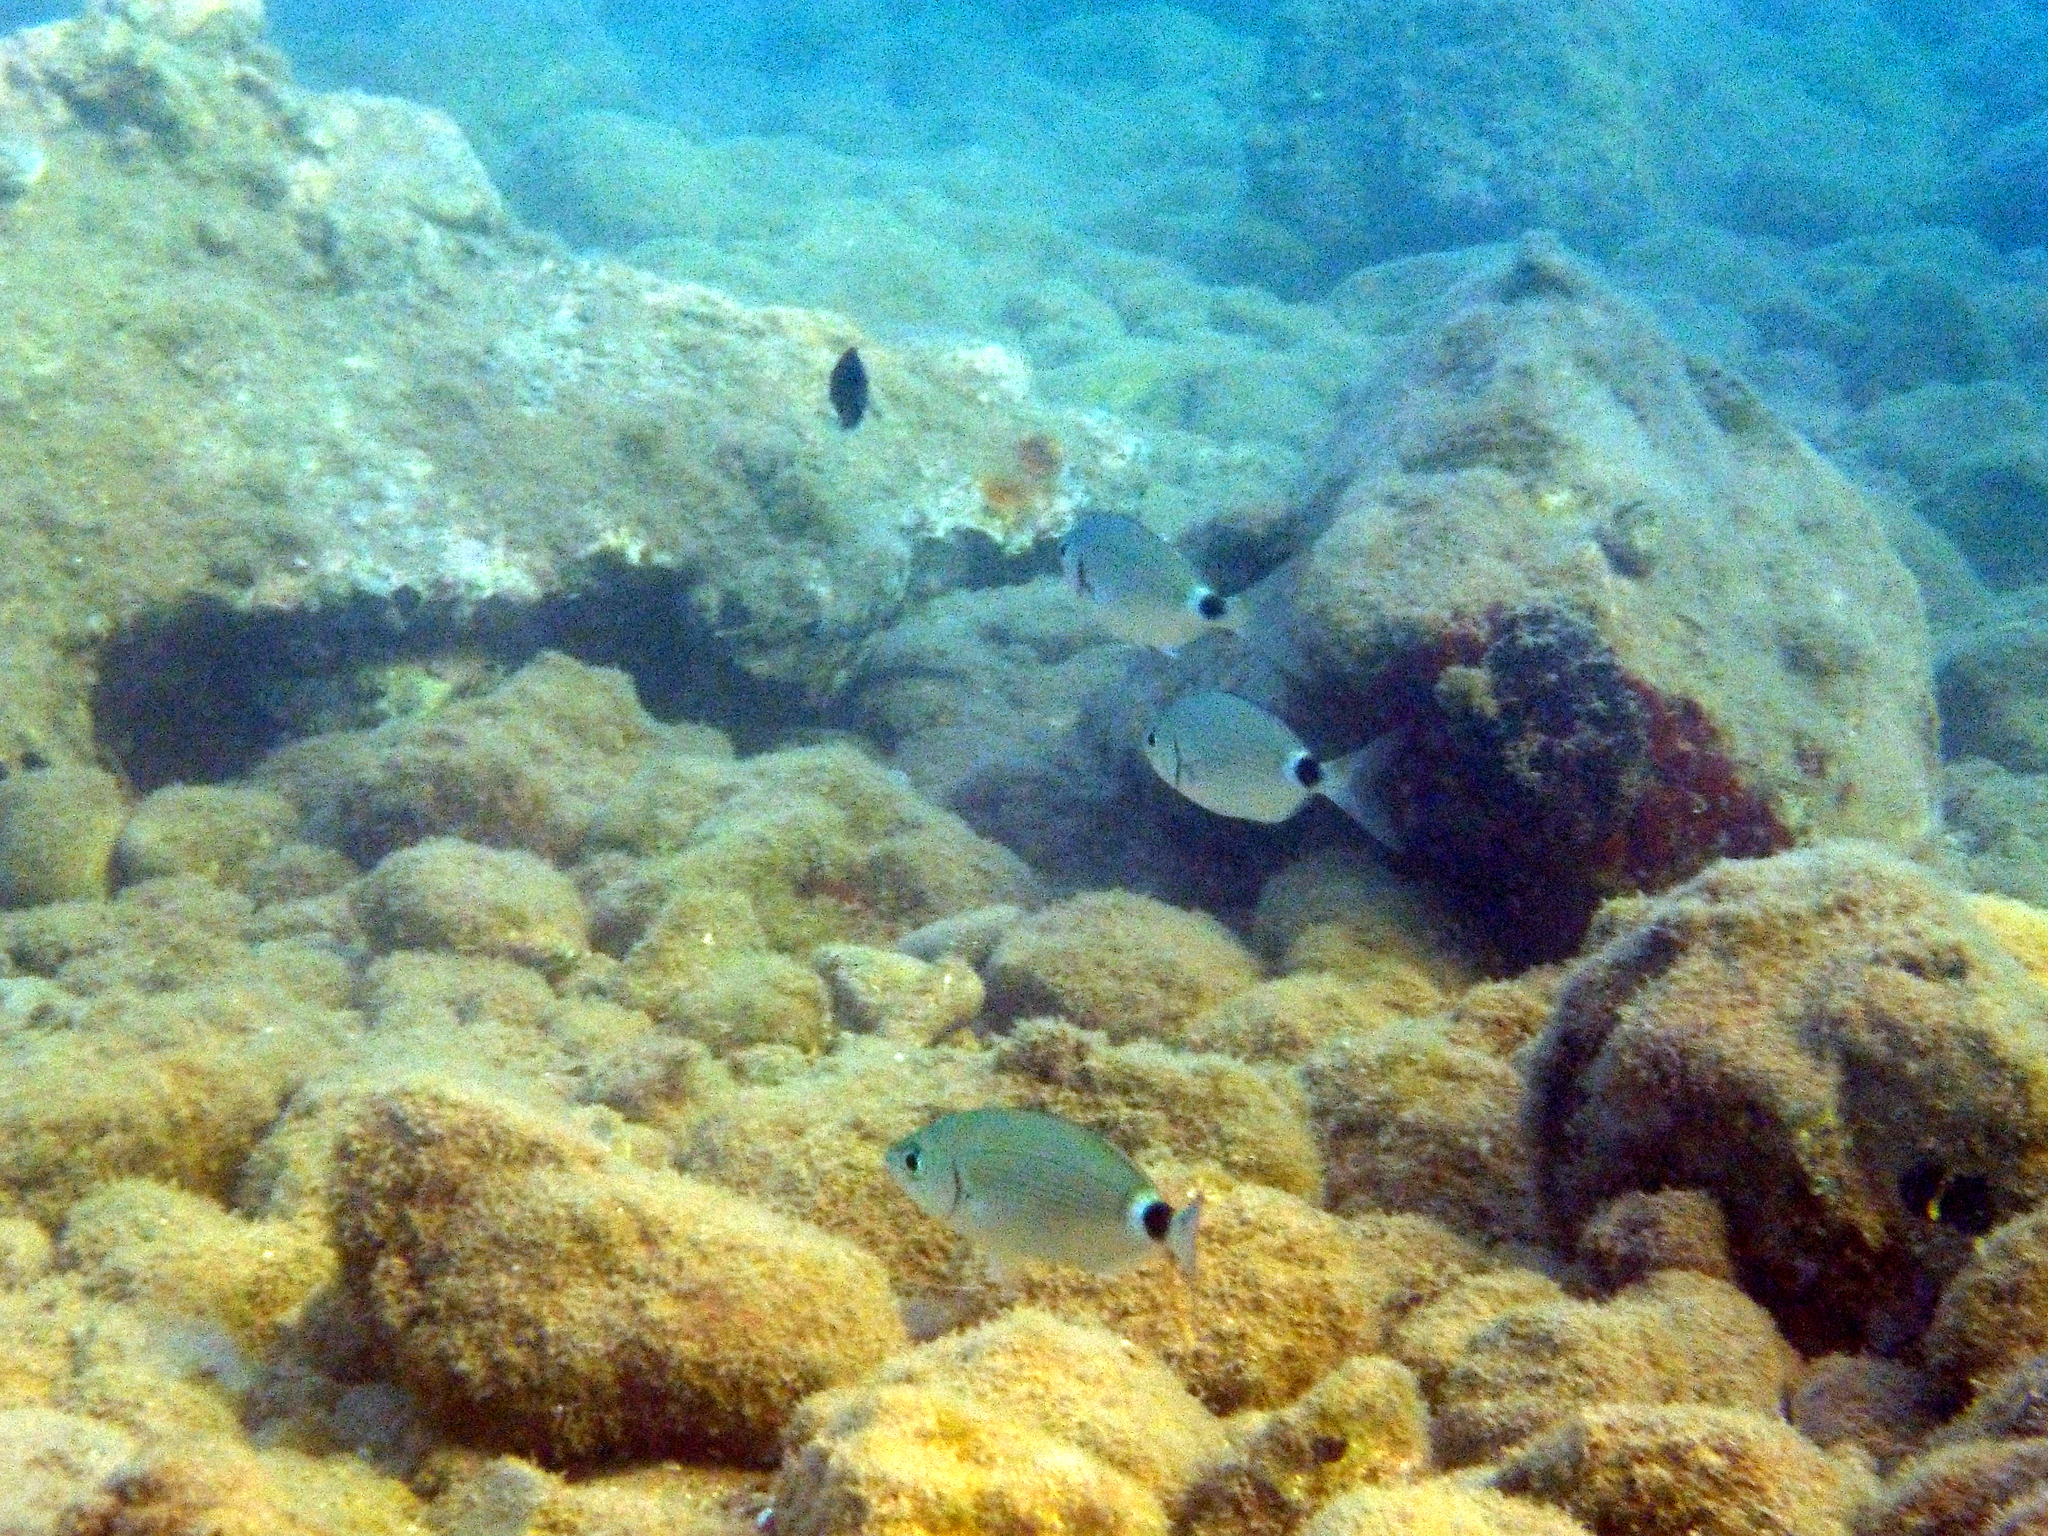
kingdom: Animalia
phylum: Chordata
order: Perciformes
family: Sparidae
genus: Oblada
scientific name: Oblada melanura
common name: Saddled seabream
